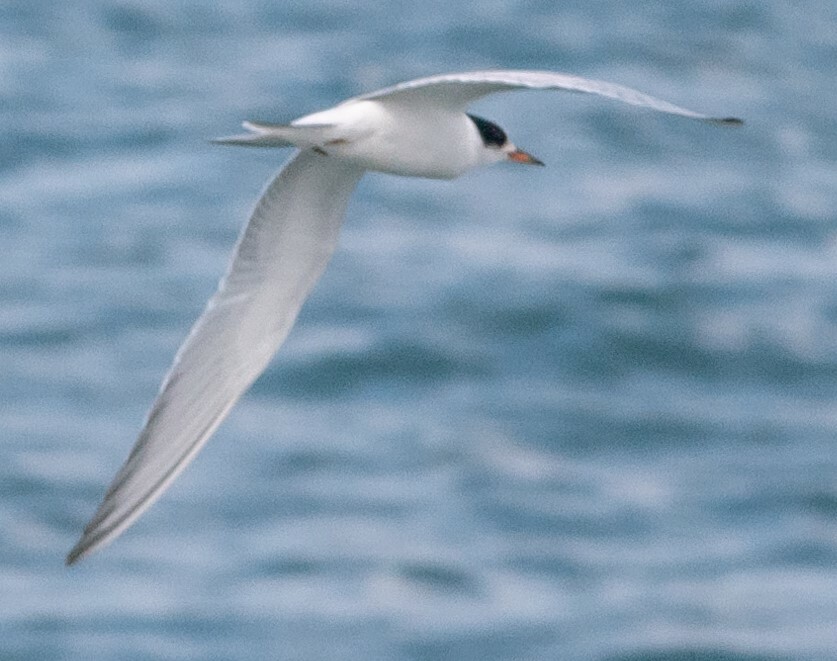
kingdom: Animalia
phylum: Chordata
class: Aves
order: Charadriiformes
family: Laridae
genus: Sterna
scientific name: Sterna hirundo
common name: Common tern
